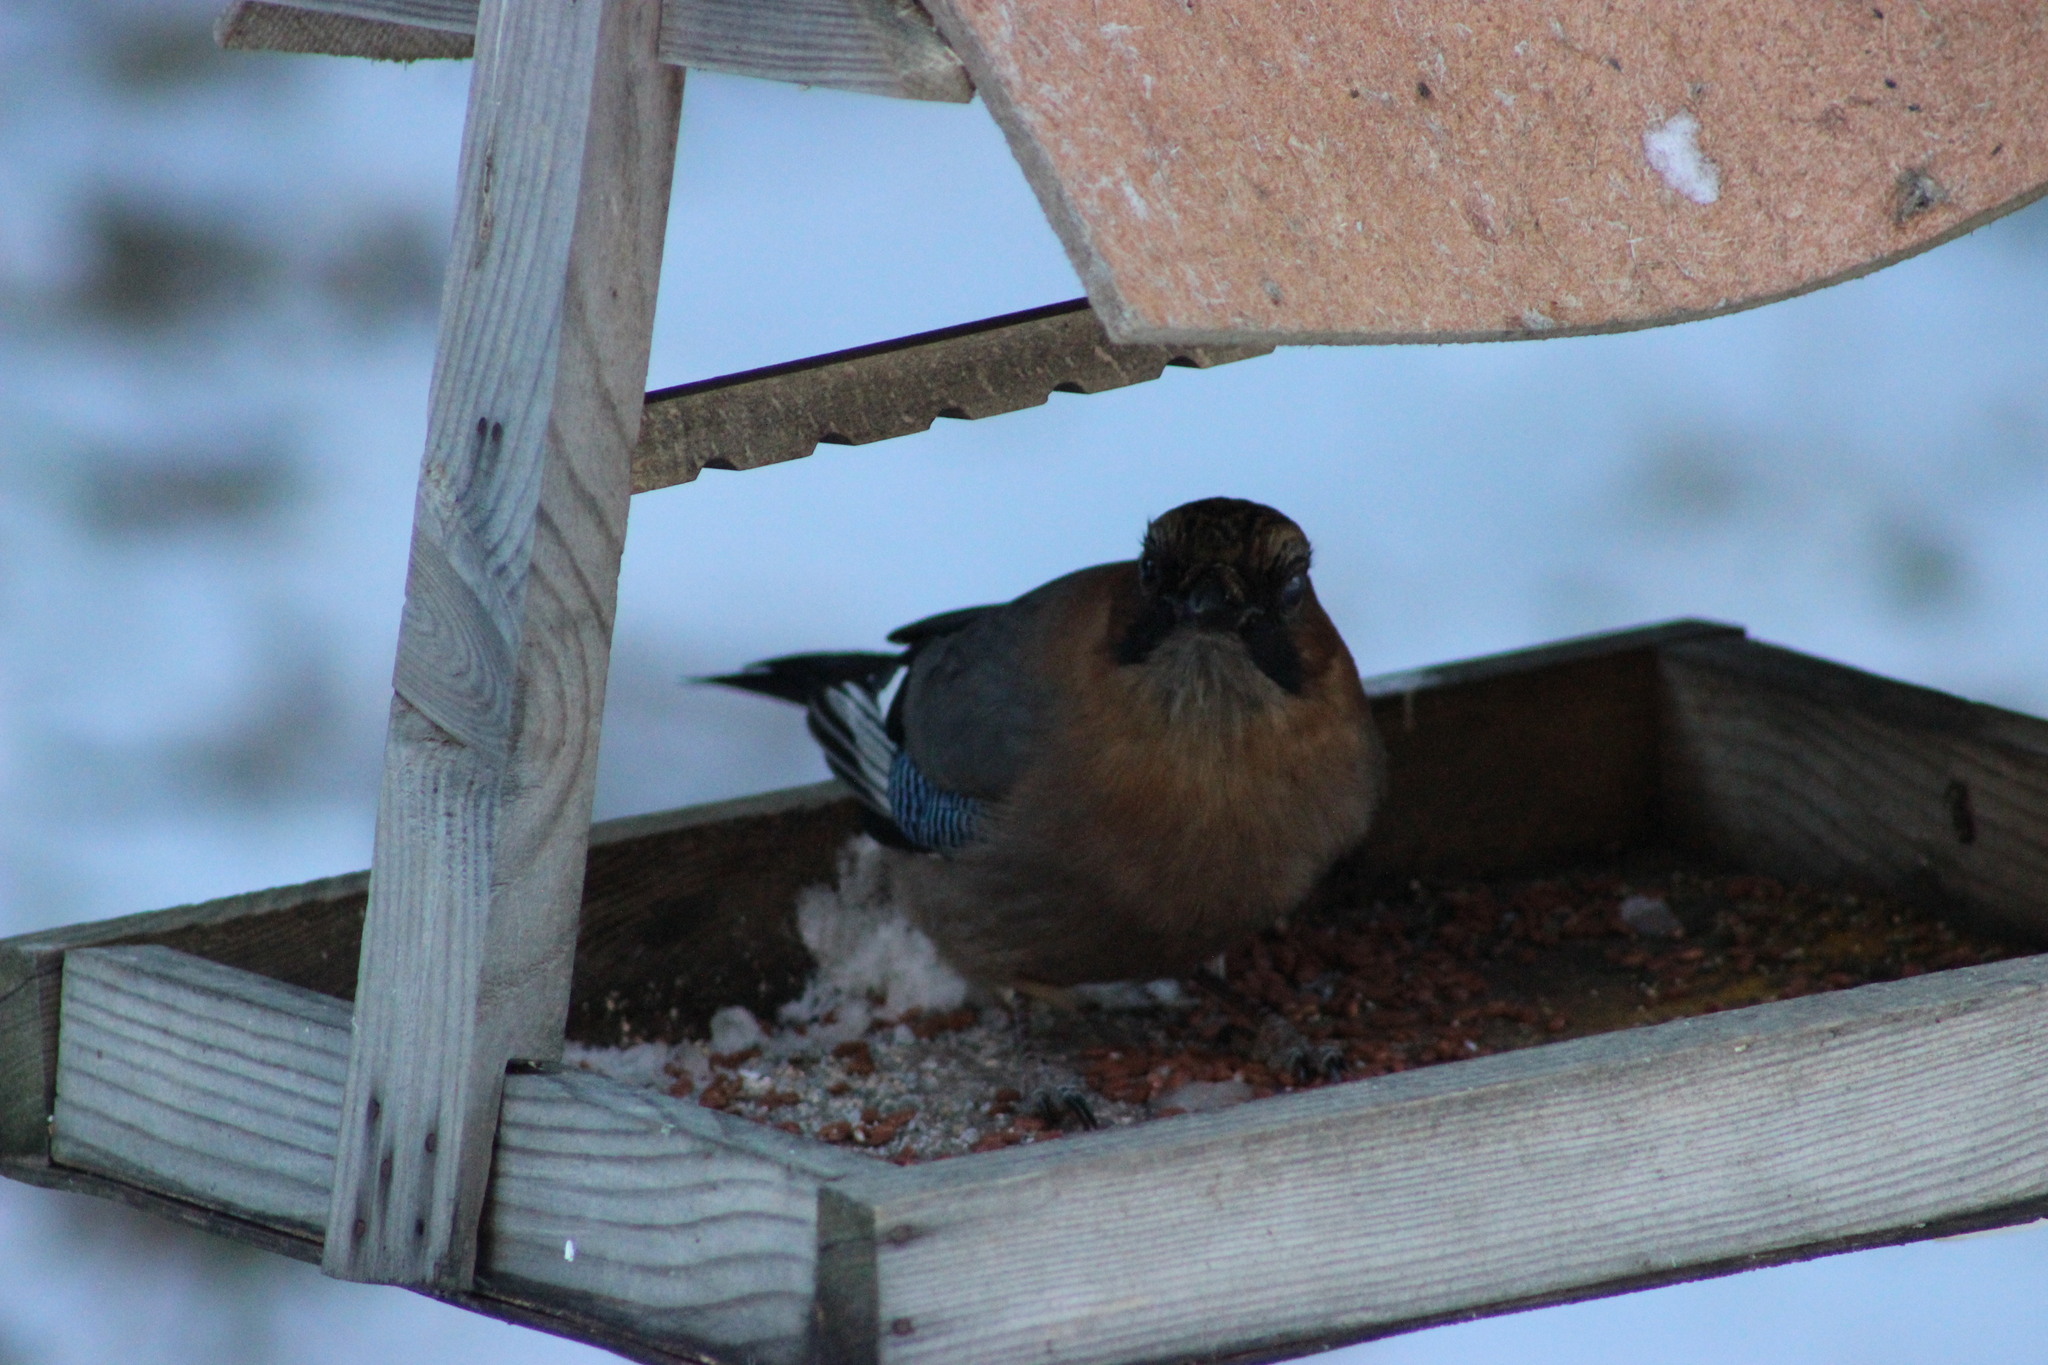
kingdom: Animalia
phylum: Chordata
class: Aves
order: Passeriformes
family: Corvidae
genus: Garrulus
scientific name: Garrulus glandarius
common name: Eurasian jay
